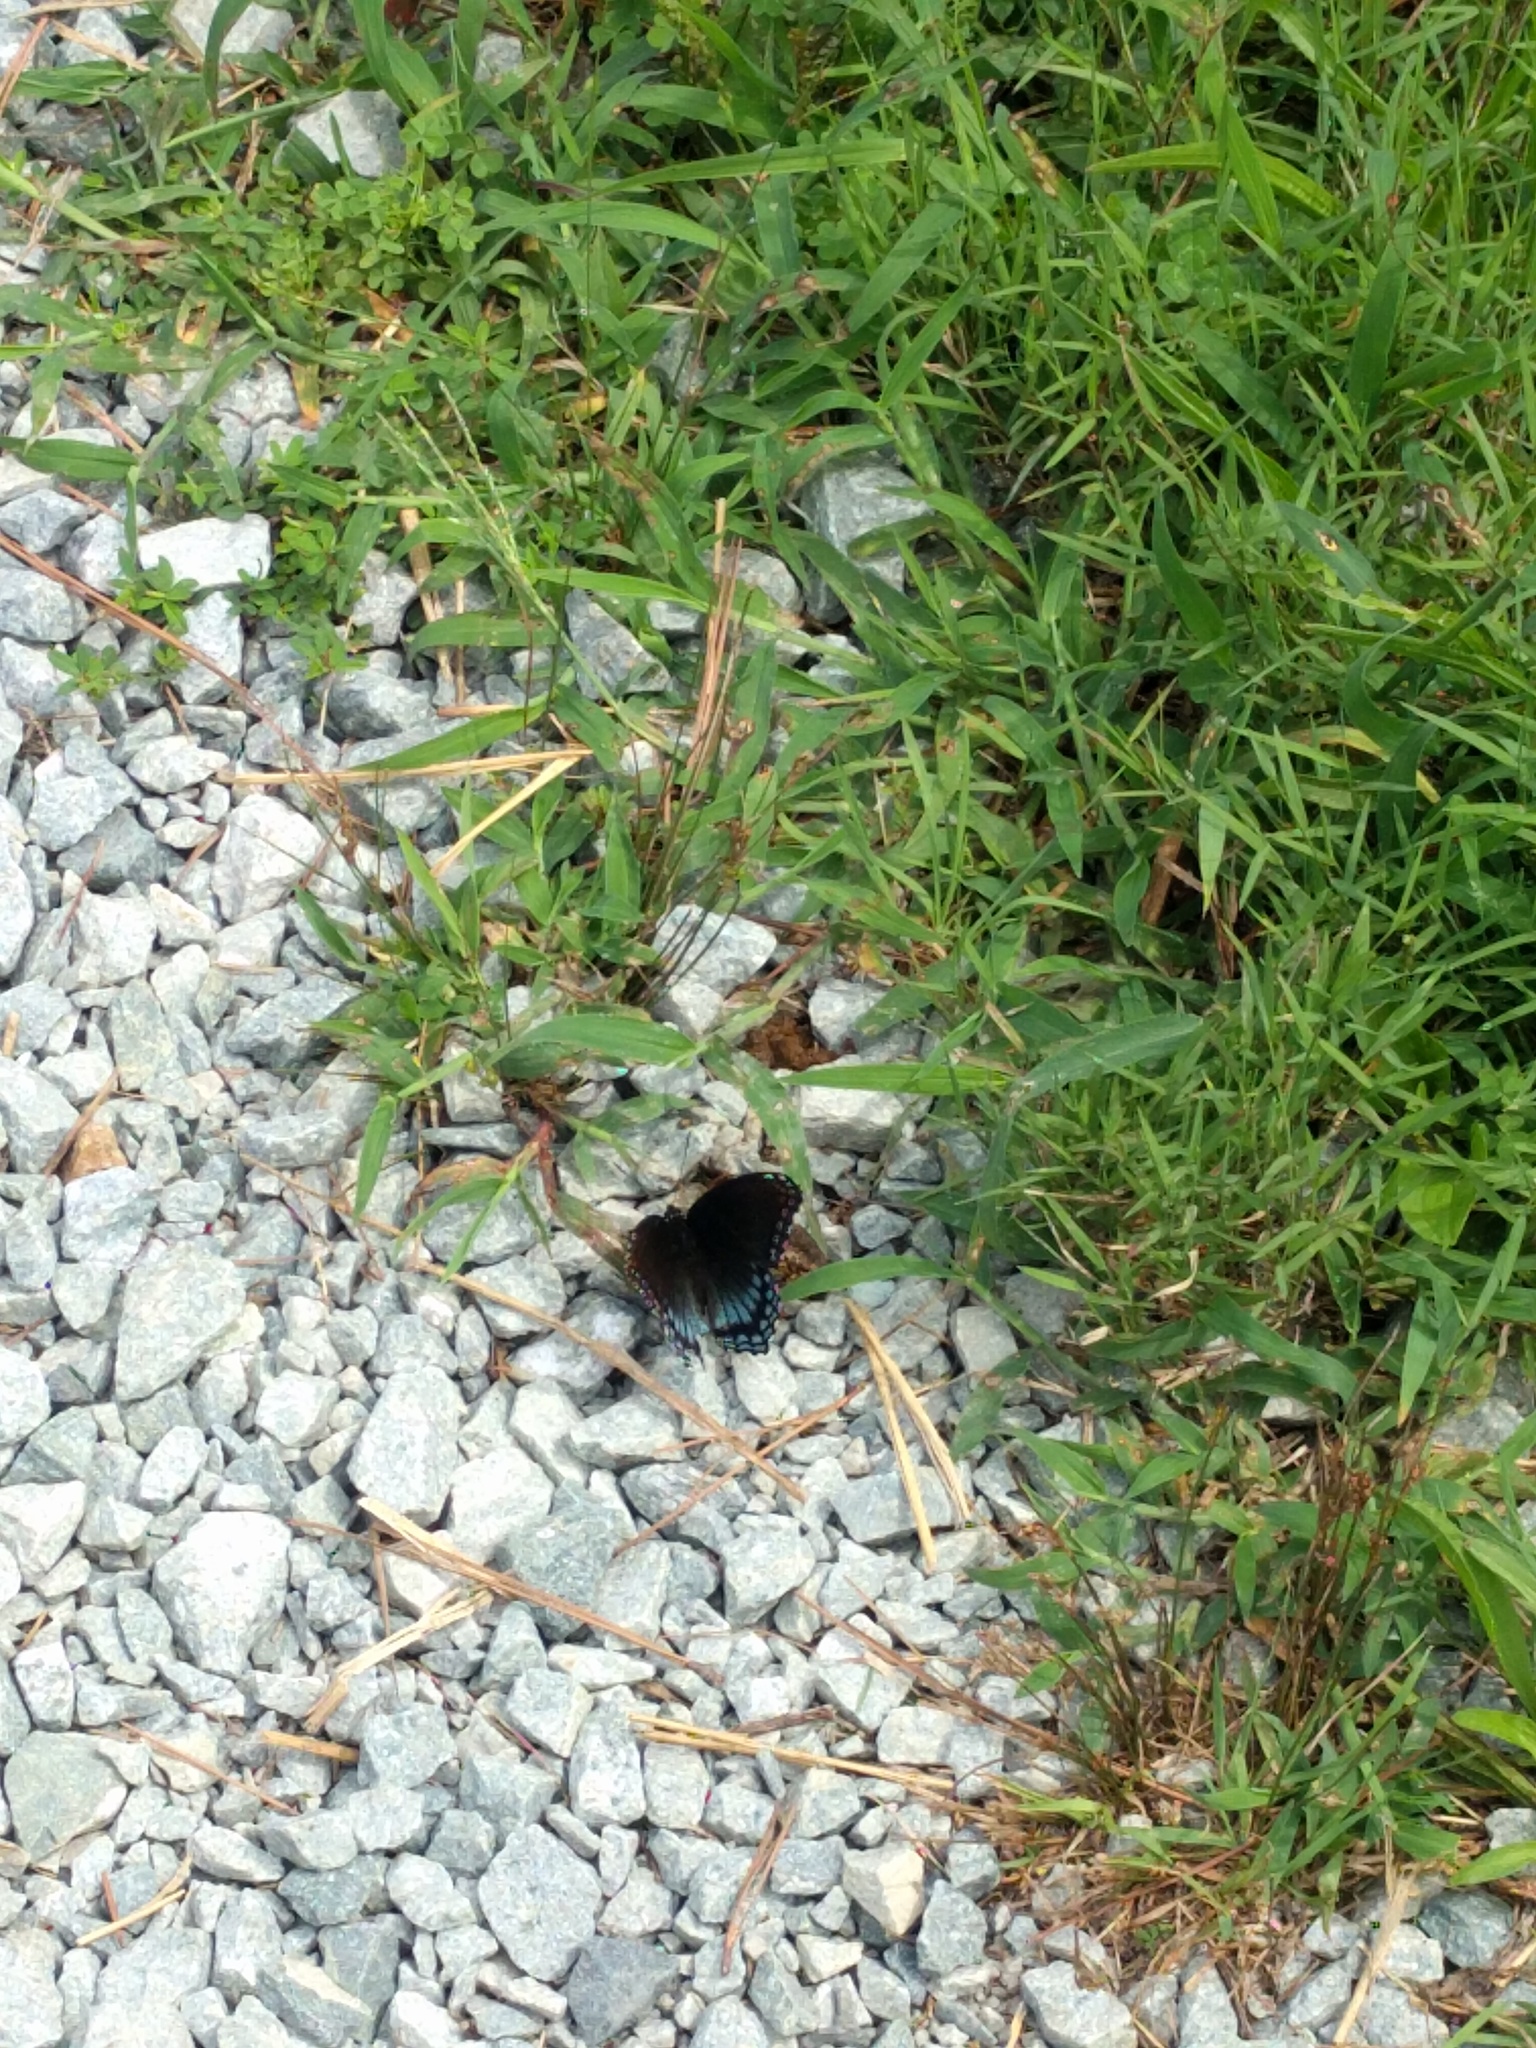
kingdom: Animalia
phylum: Arthropoda
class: Insecta
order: Lepidoptera
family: Nymphalidae
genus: Limenitis
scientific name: Limenitis astyanax
